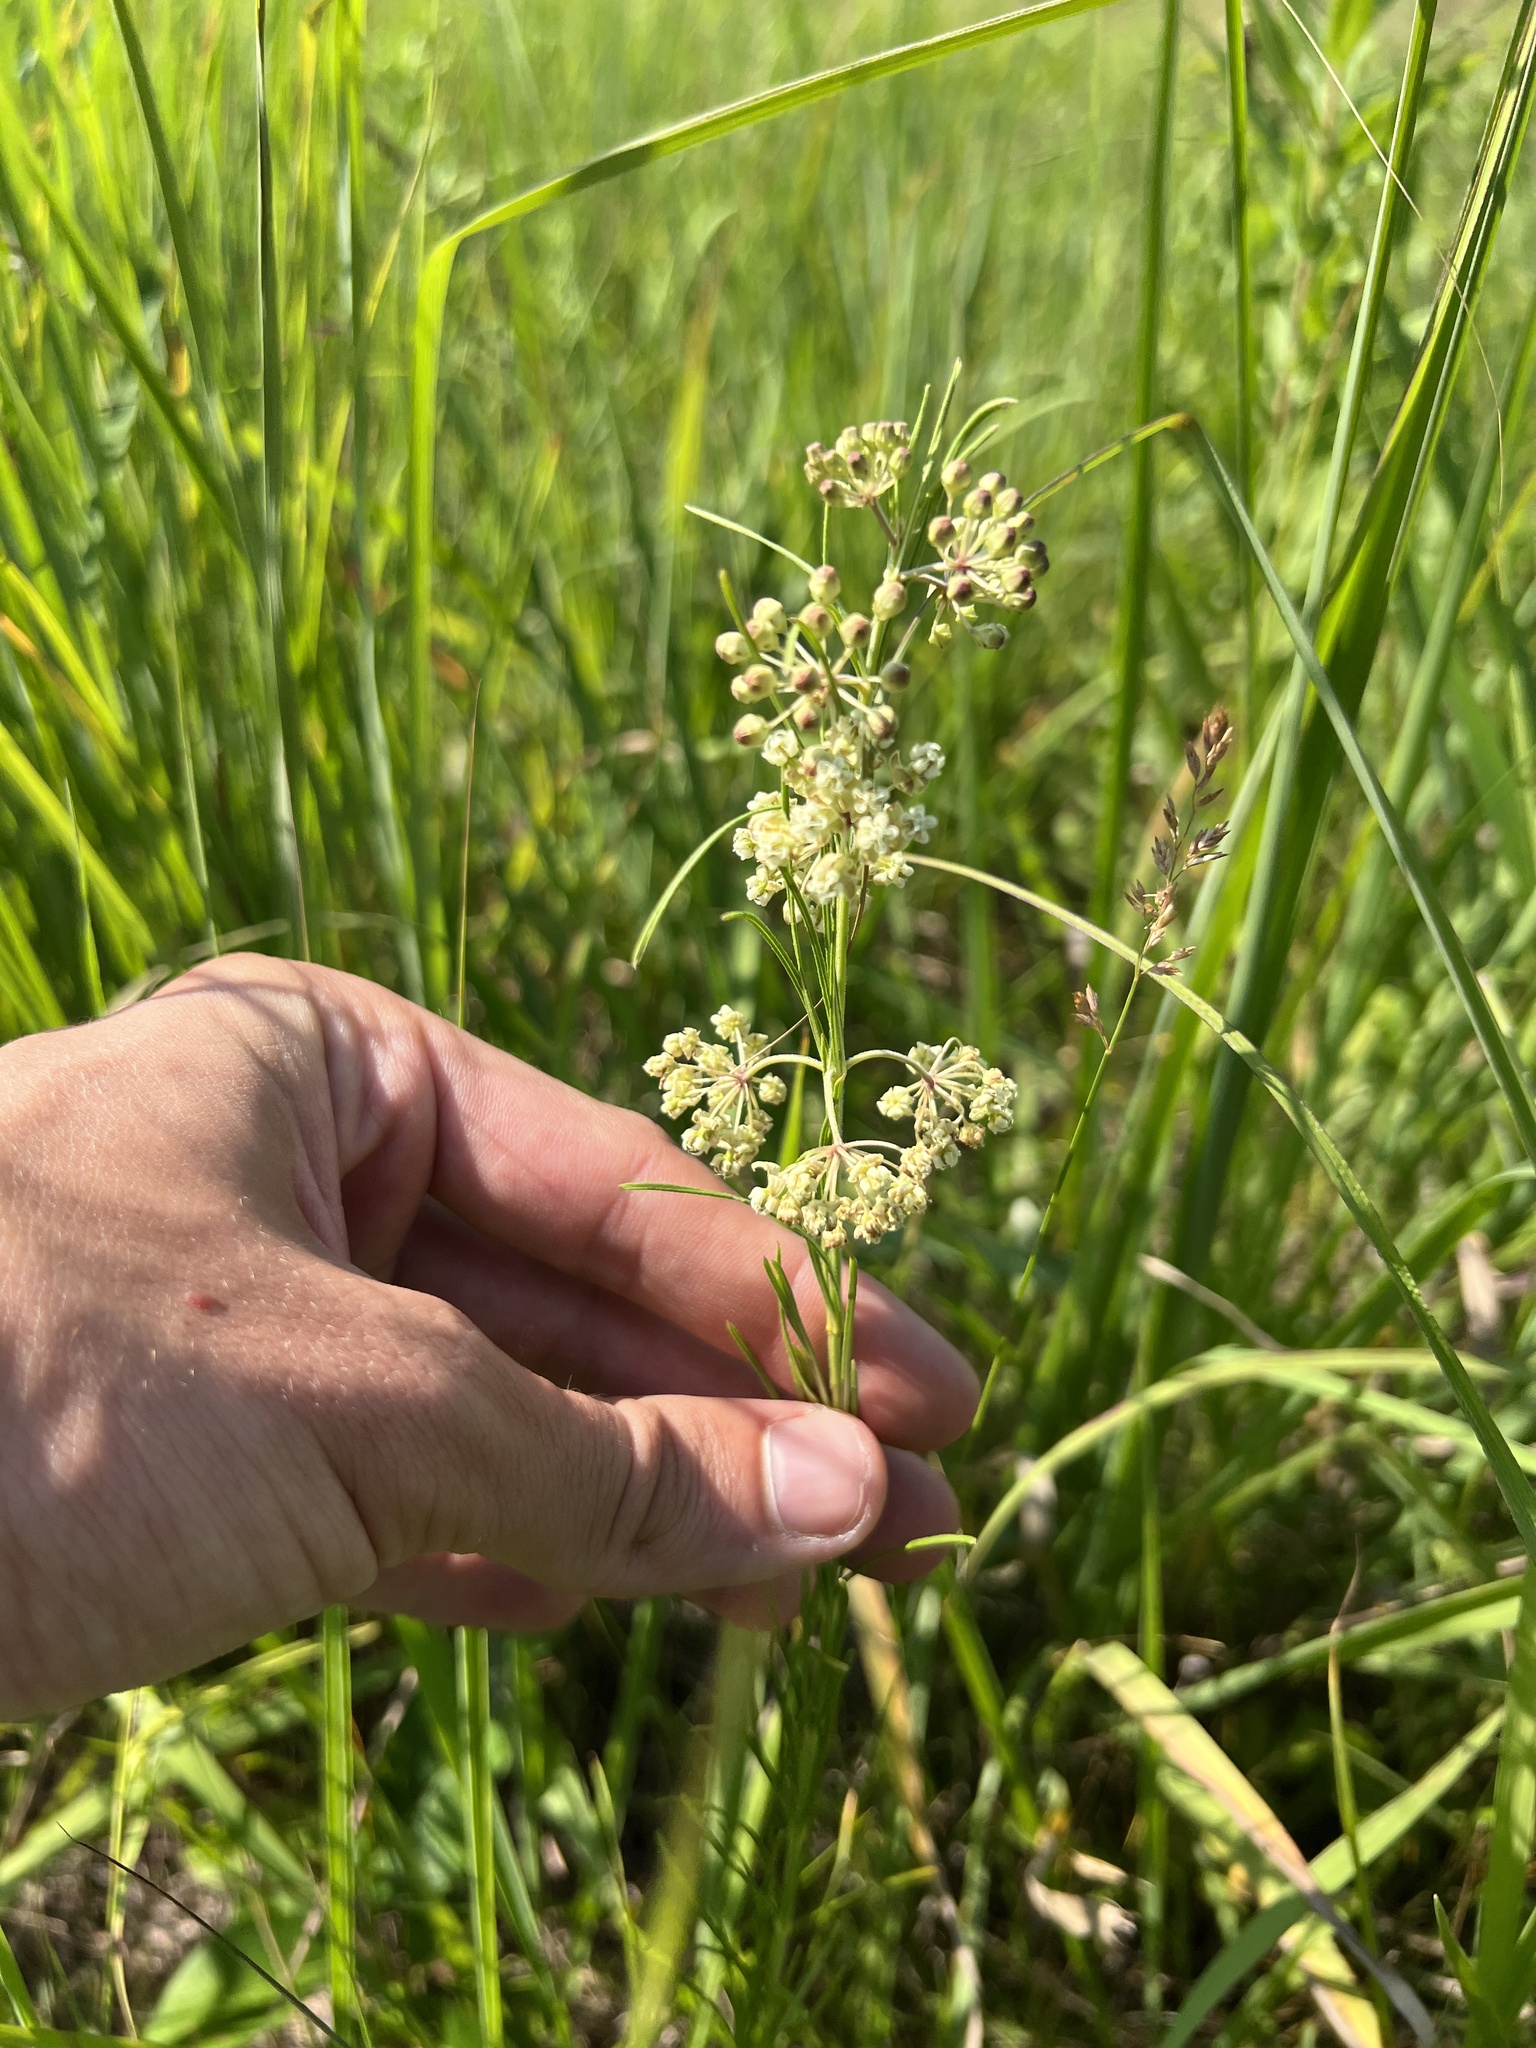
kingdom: Plantae
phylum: Tracheophyta
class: Magnoliopsida
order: Gentianales
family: Apocynaceae
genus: Asclepias
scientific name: Asclepias verticillata
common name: Eastern whorled milkweed
